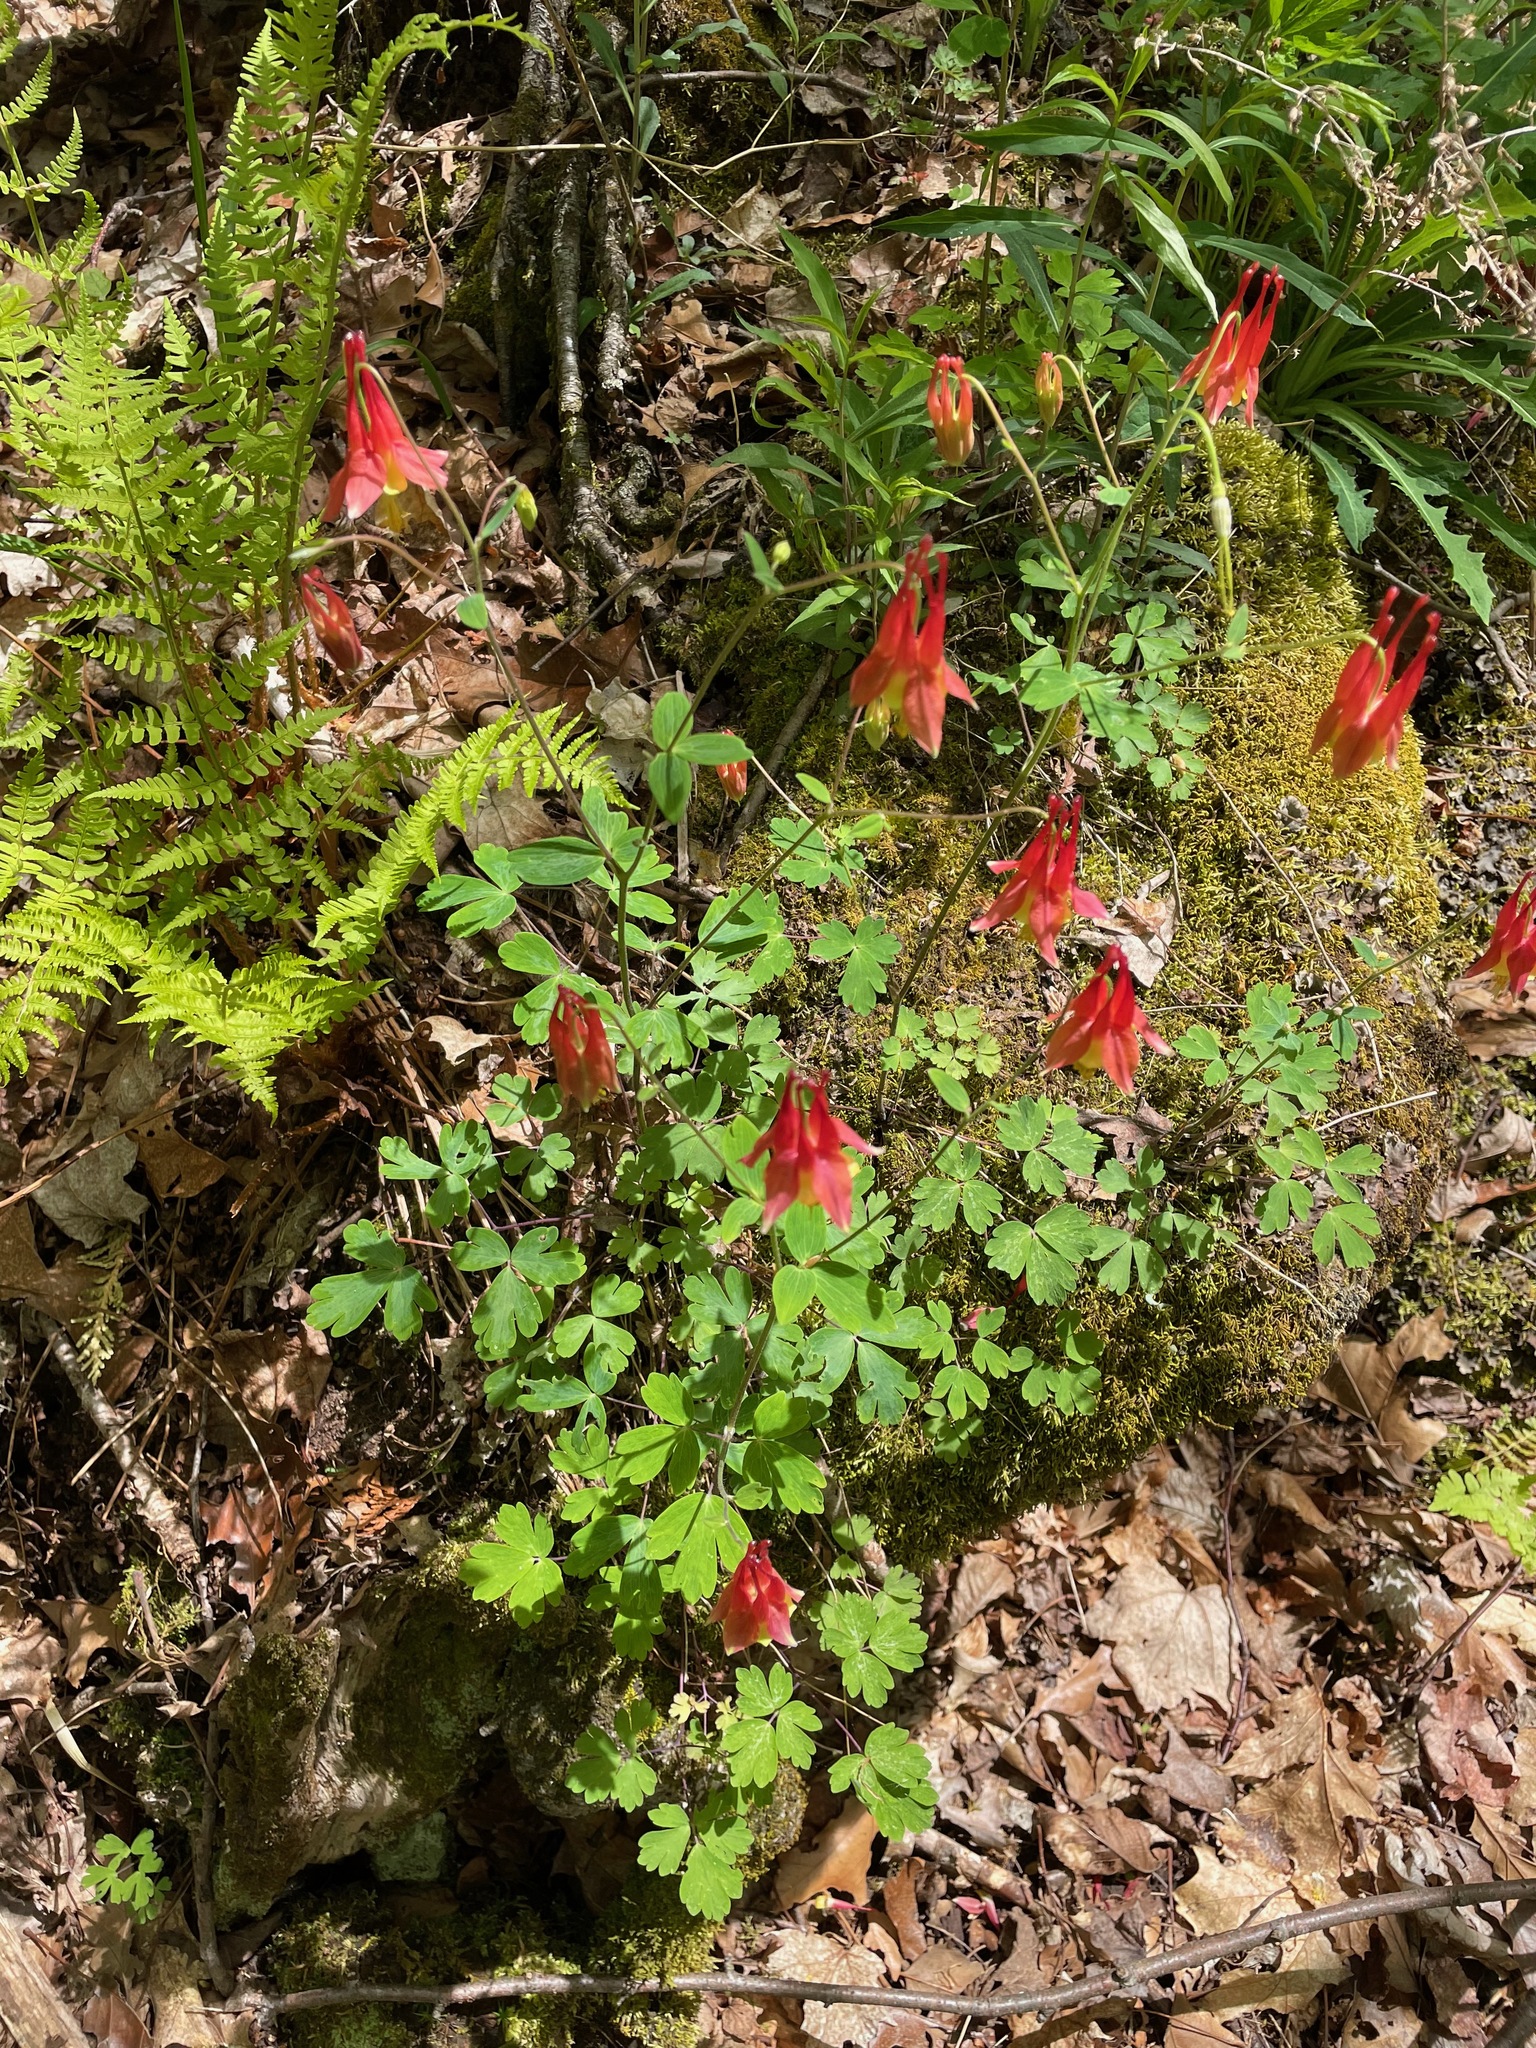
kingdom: Plantae
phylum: Tracheophyta
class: Magnoliopsida
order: Ranunculales
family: Ranunculaceae
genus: Aquilegia
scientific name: Aquilegia canadensis
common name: American columbine
